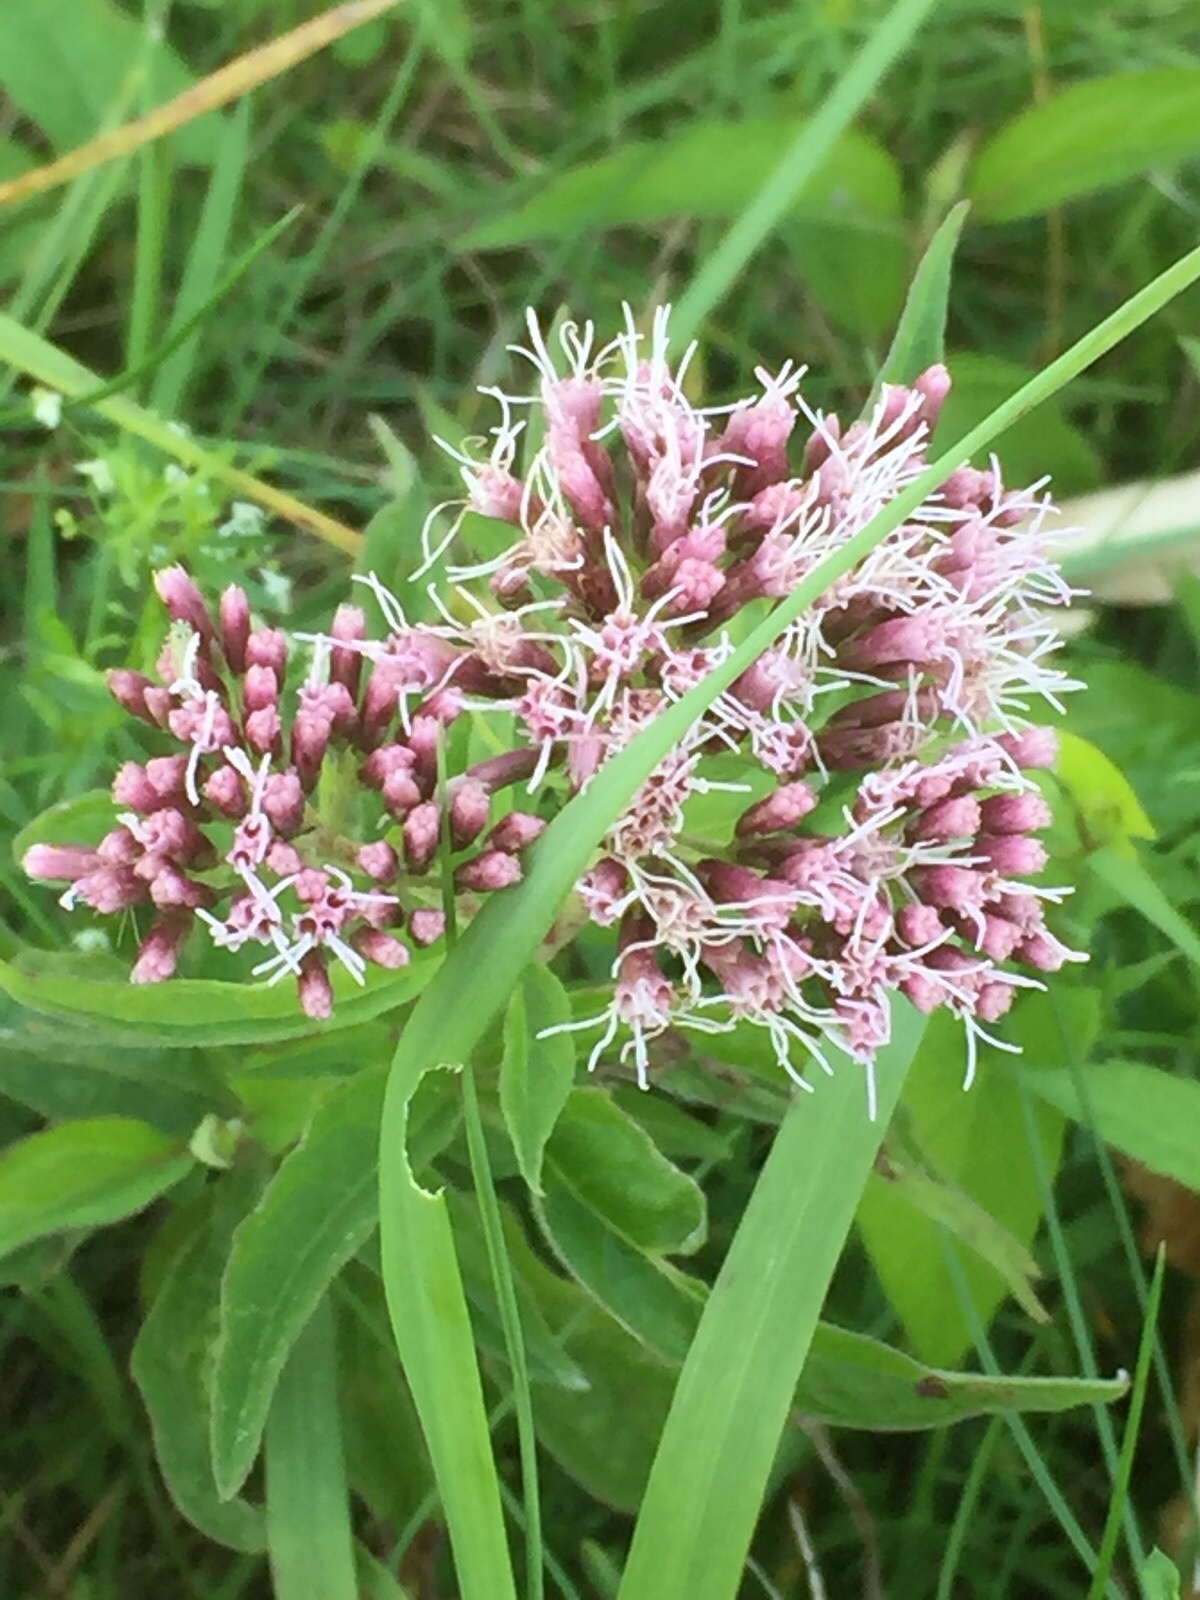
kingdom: Plantae
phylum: Tracheophyta
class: Magnoliopsida
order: Asterales
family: Asteraceae
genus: Eupatorium
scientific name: Eupatorium cannabinum
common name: Hemp-agrimony
